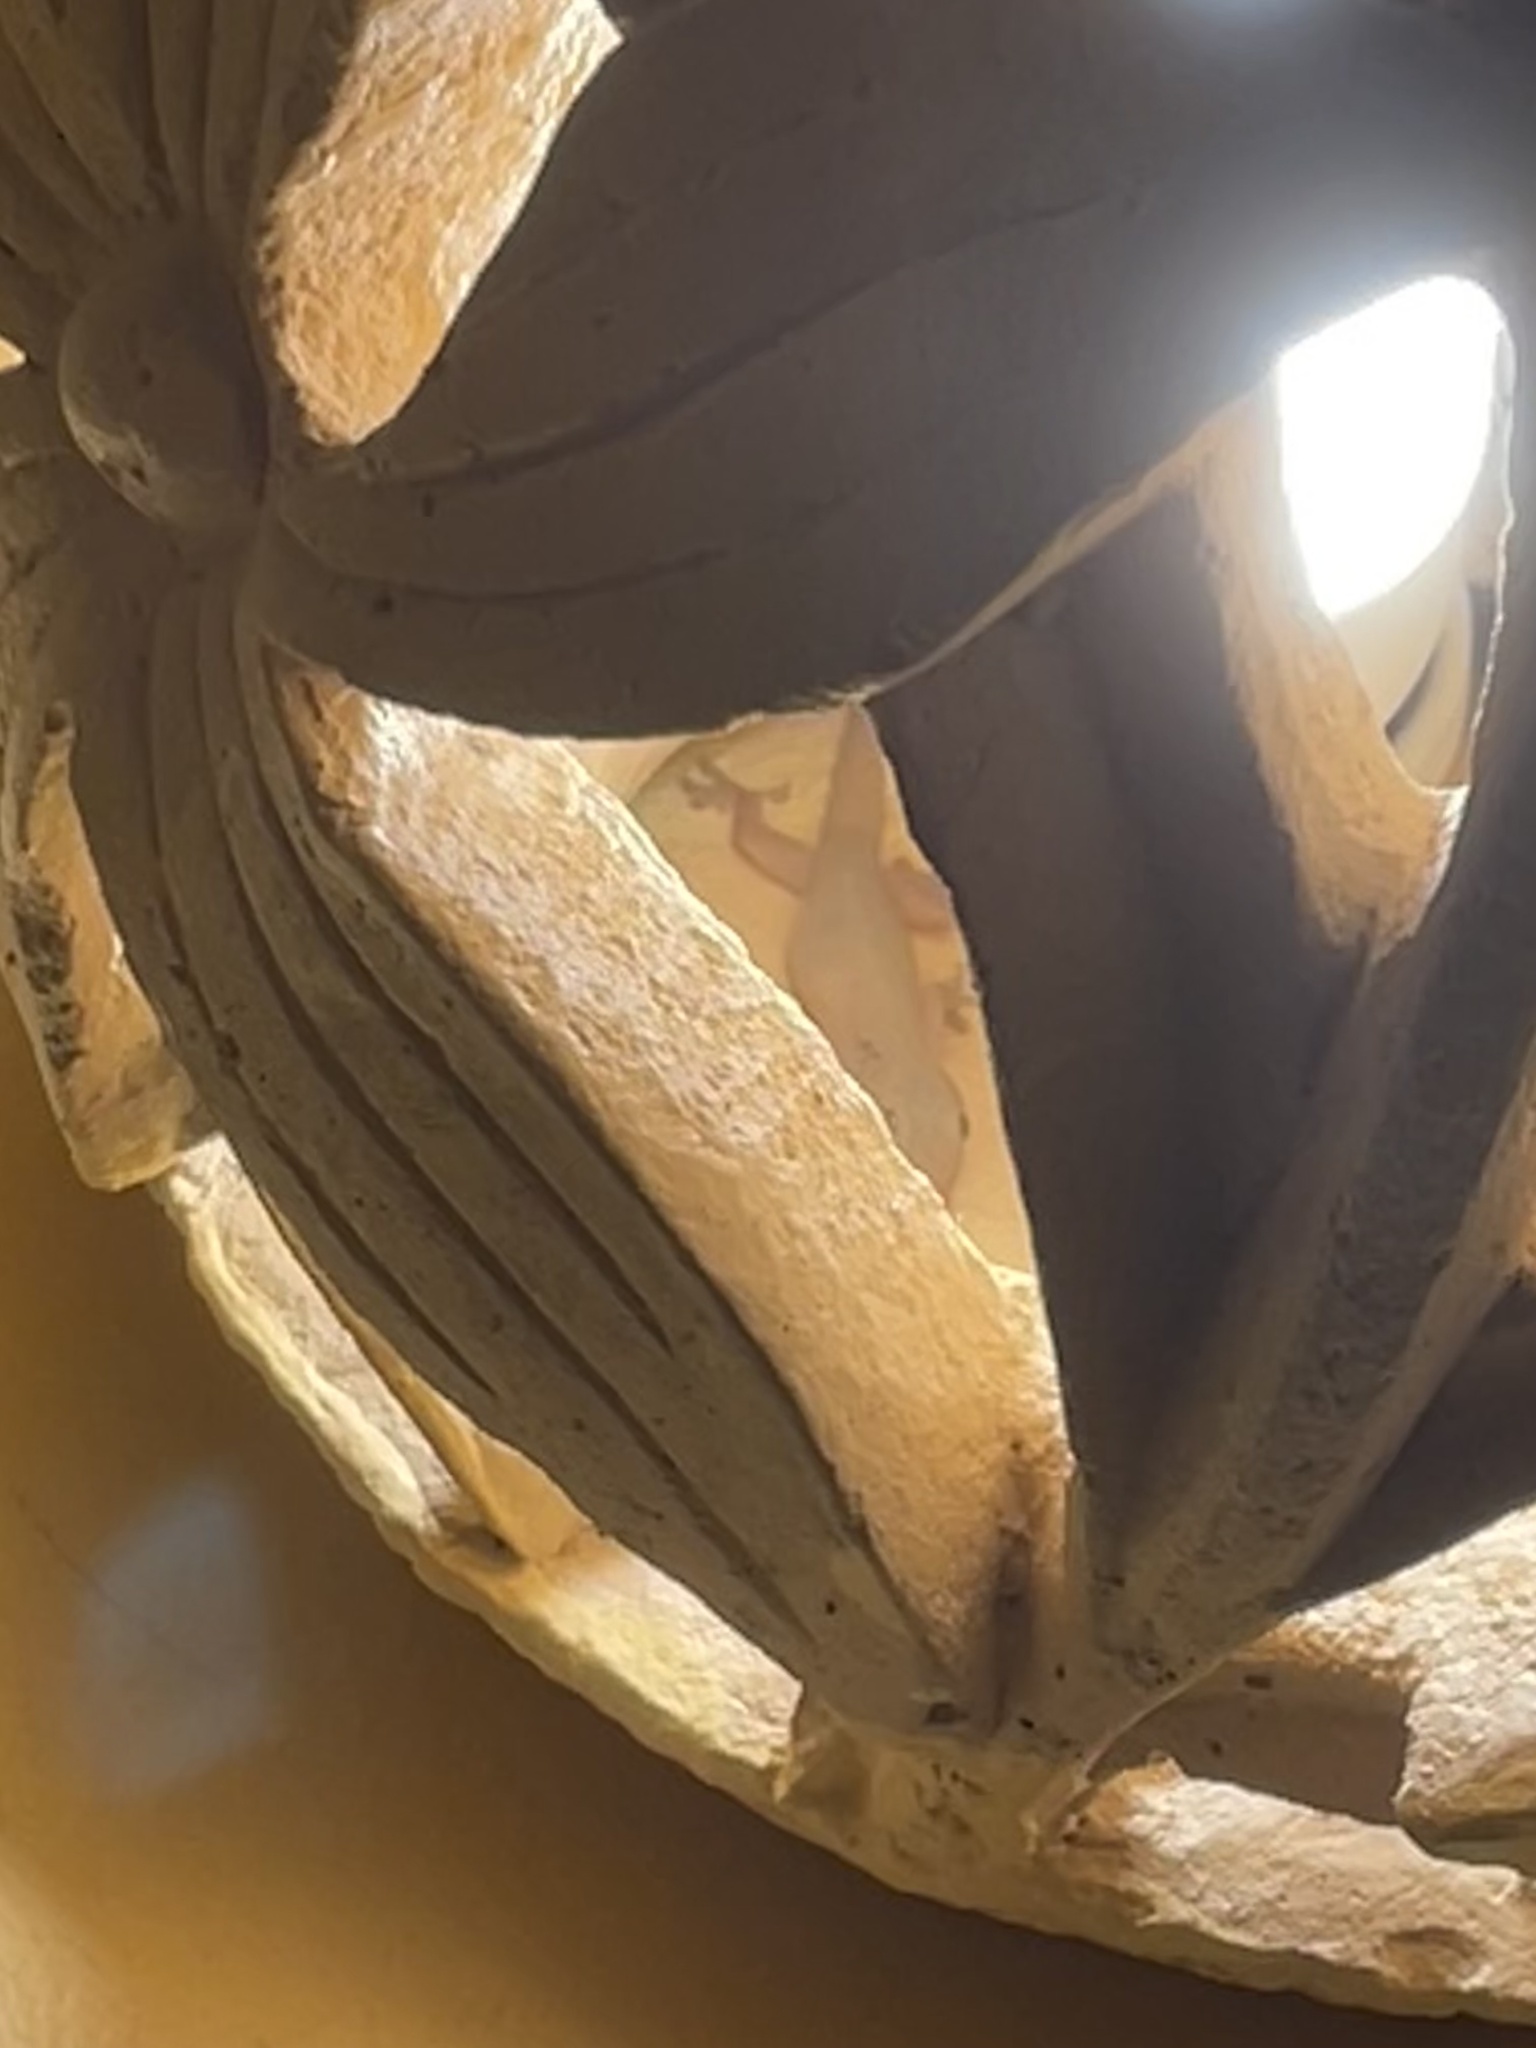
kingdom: Animalia
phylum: Chordata
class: Squamata
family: Gekkonidae
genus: Hemidactylus
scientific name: Hemidactylus frenatus
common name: Common house gecko
